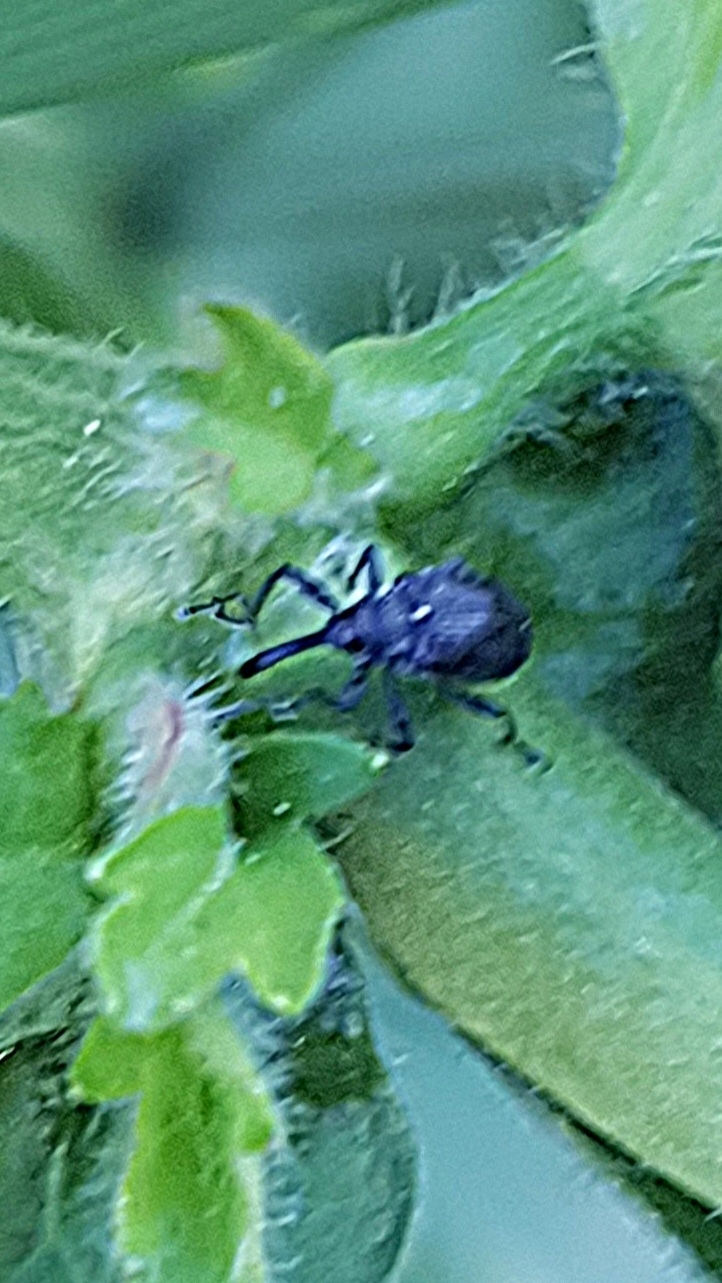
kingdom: Animalia
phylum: Arthropoda
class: Insecta
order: Coleoptera
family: Curculionidae
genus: Anthonomus
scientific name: Anthonomus rubi
